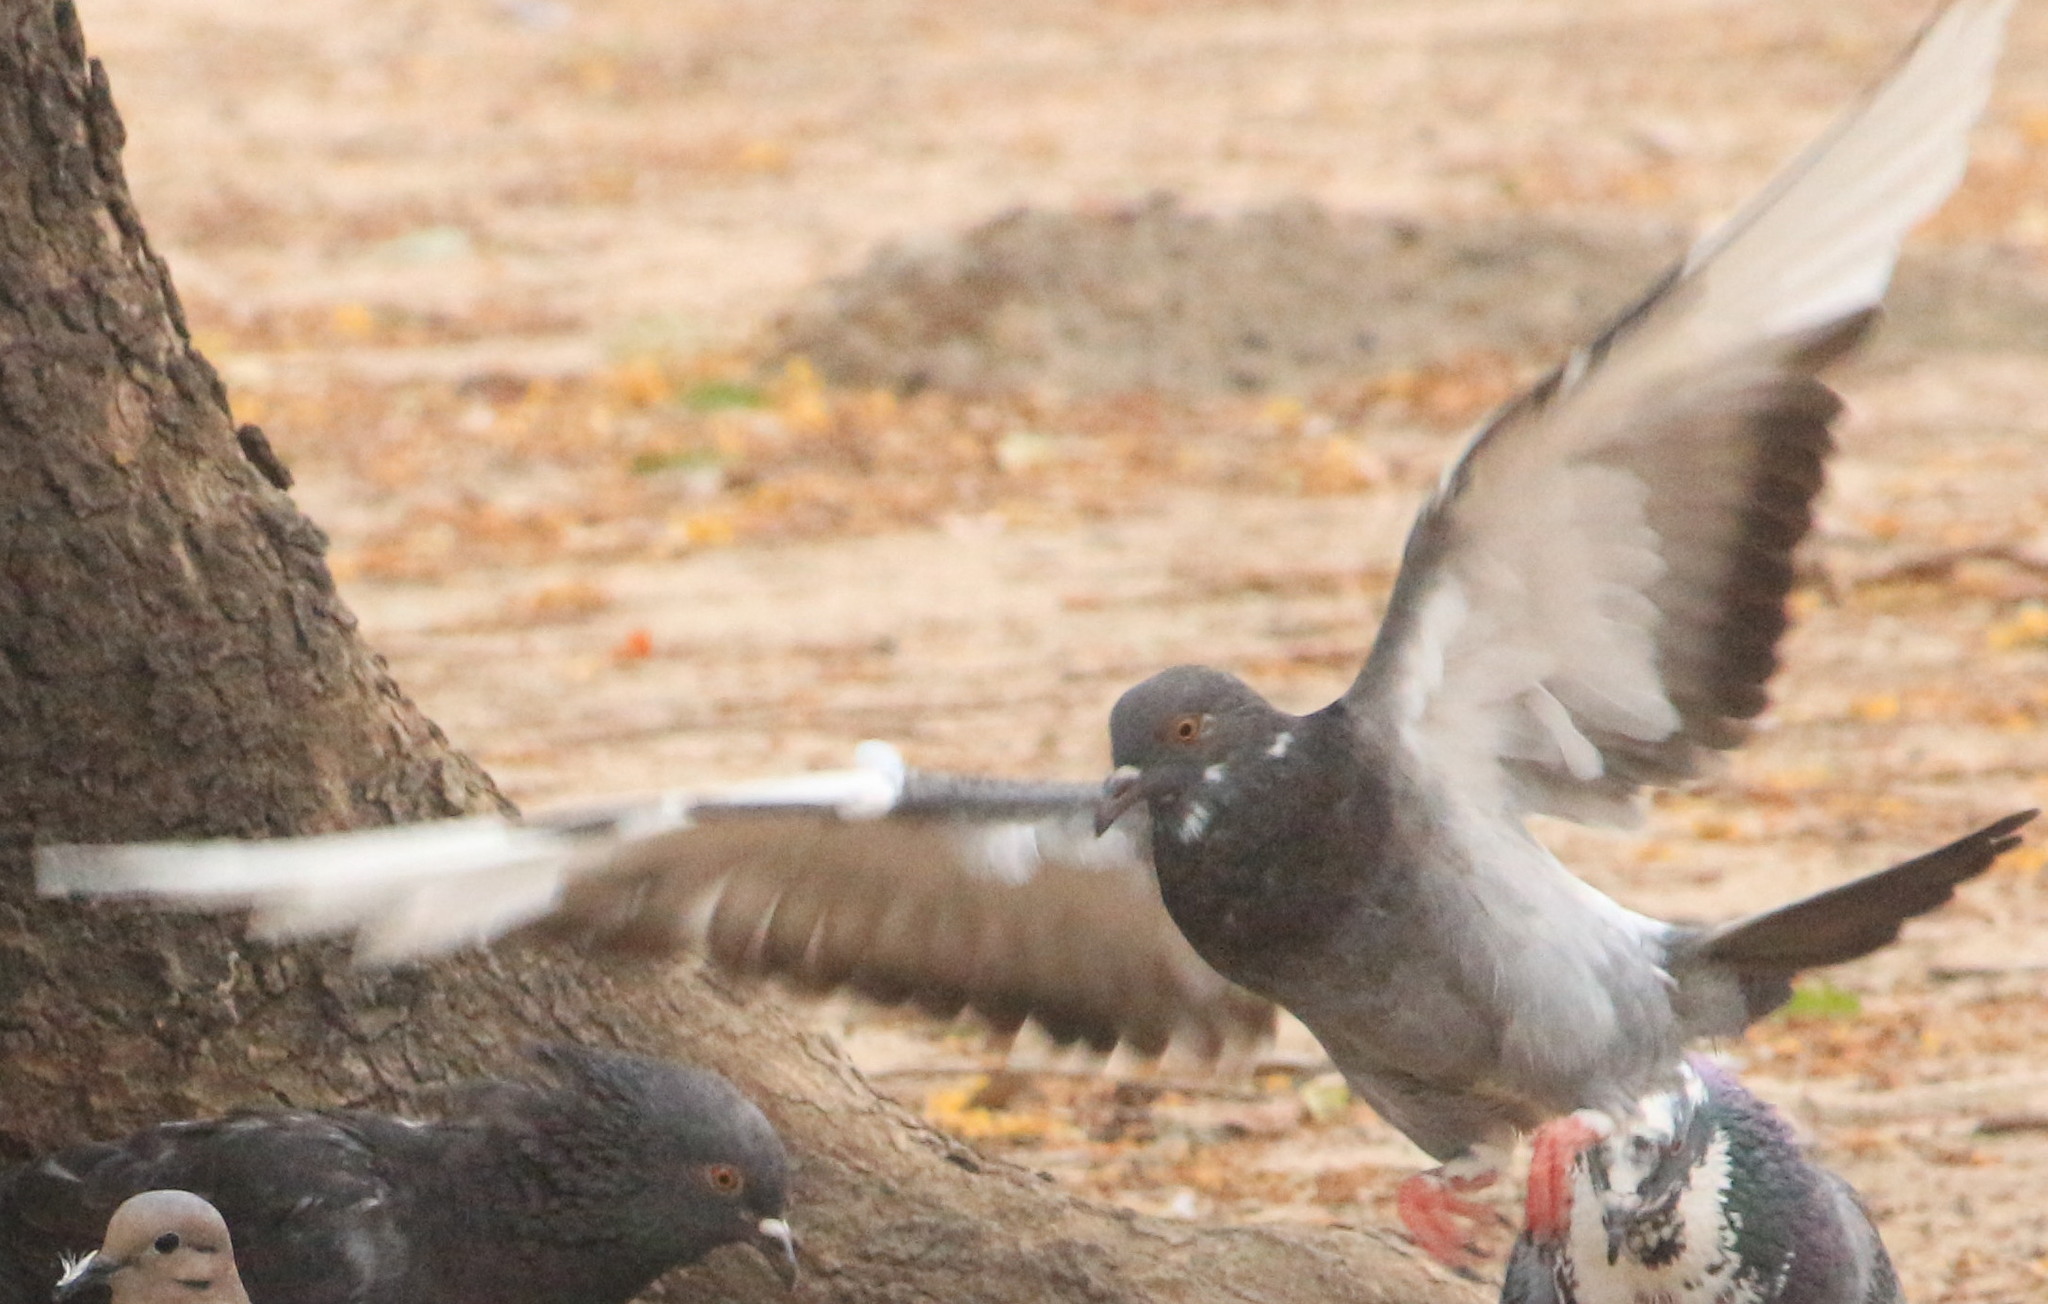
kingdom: Animalia
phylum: Chordata
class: Aves
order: Columbiformes
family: Columbidae
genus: Columba
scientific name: Columba livia
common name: Rock pigeon
